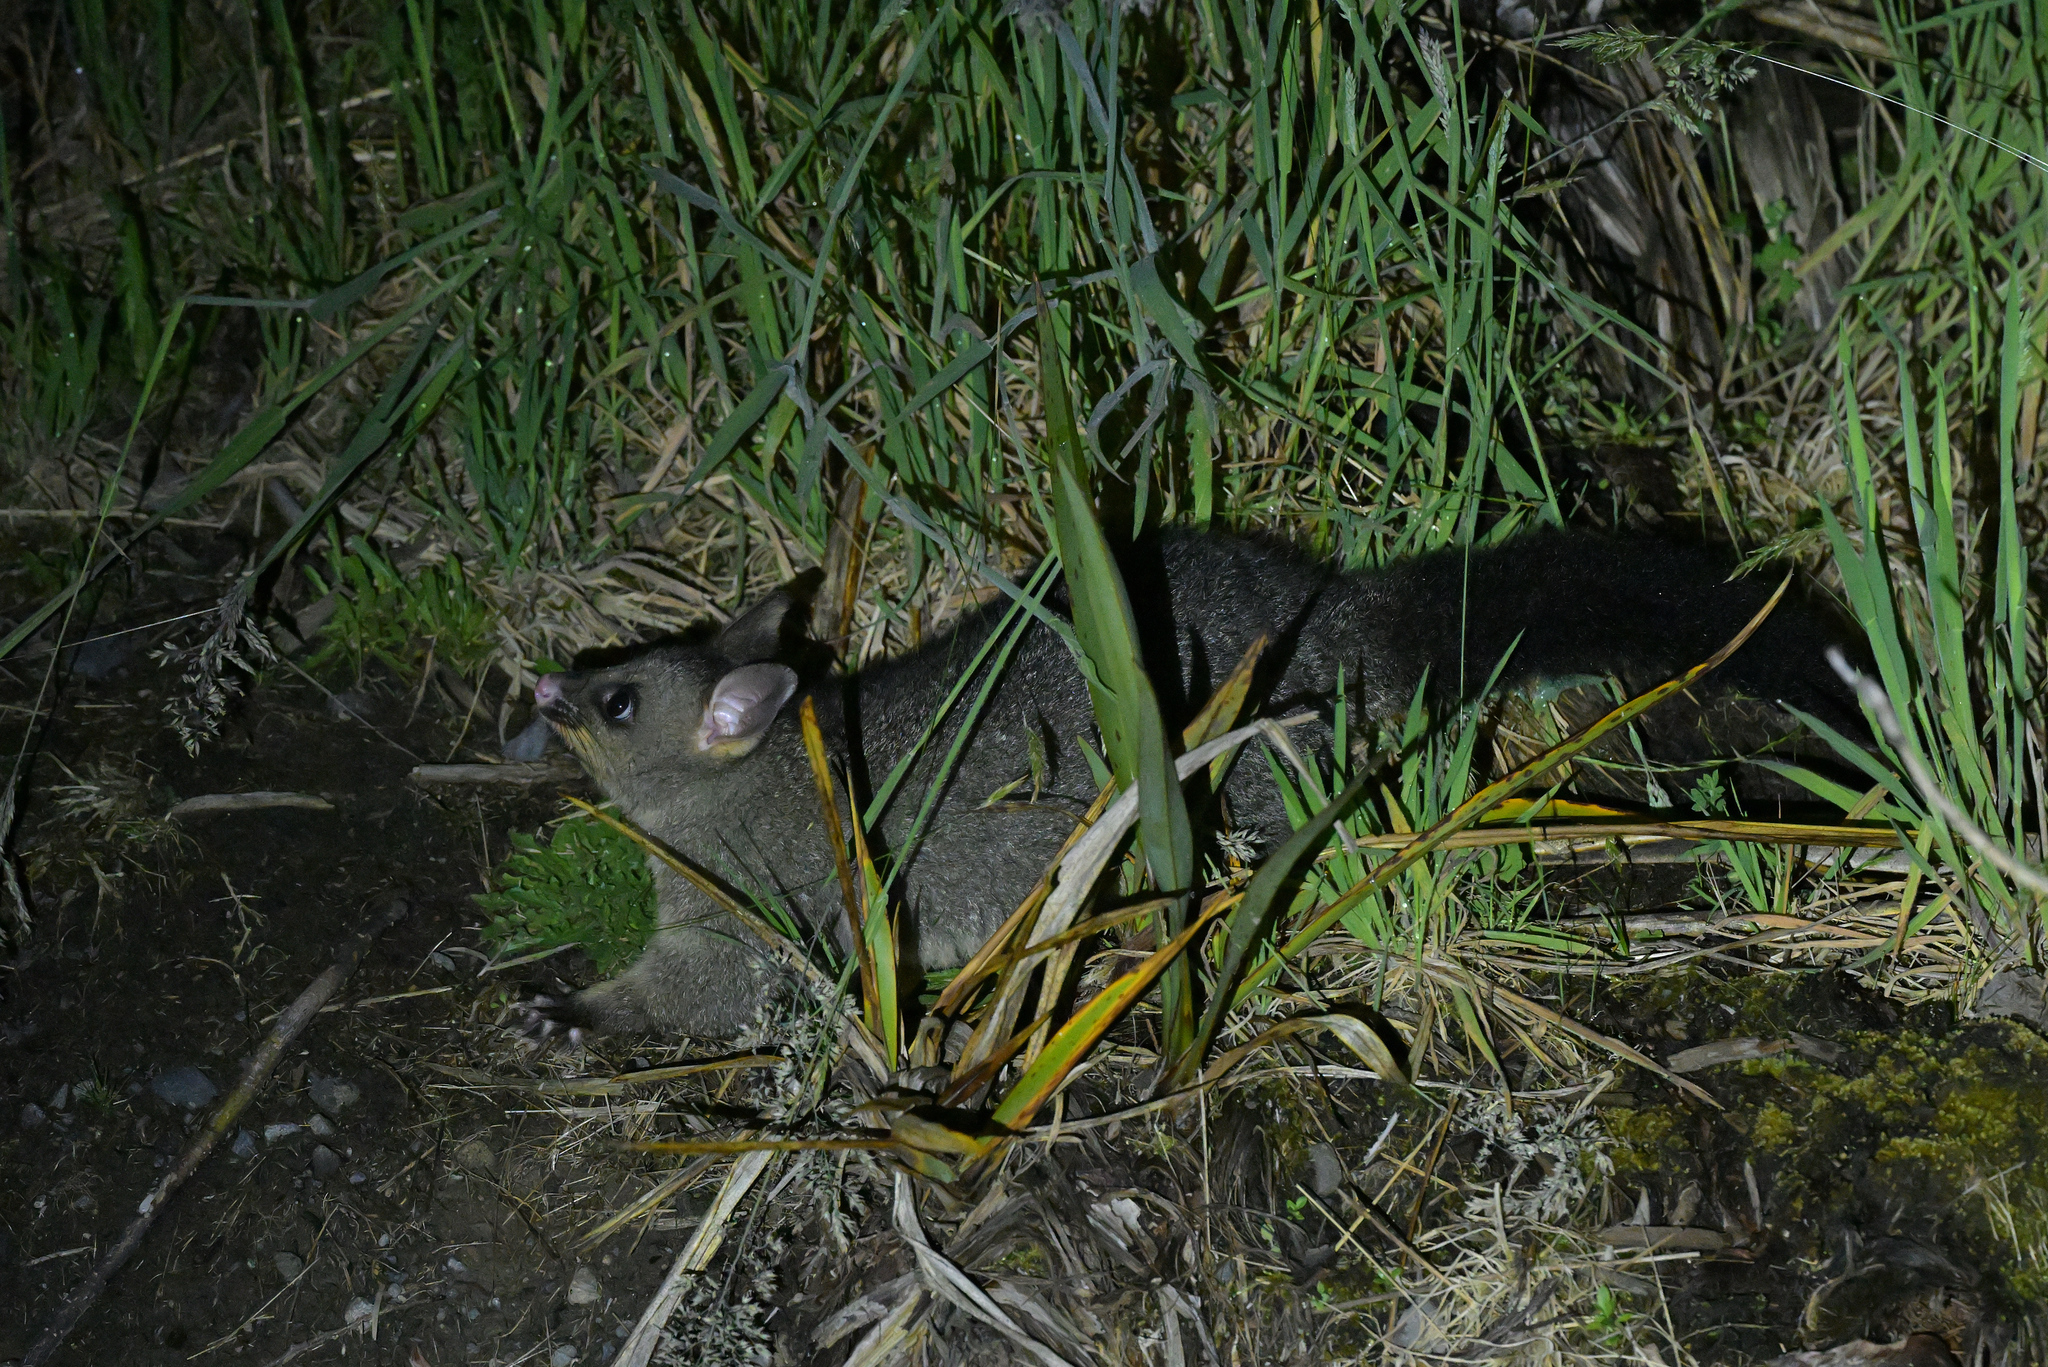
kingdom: Animalia
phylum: Chordata
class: Mammalia
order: Diprotodontia
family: Phalangeridae
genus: Trichosurus
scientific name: Trichosurus vulpecula
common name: Common brushtail
